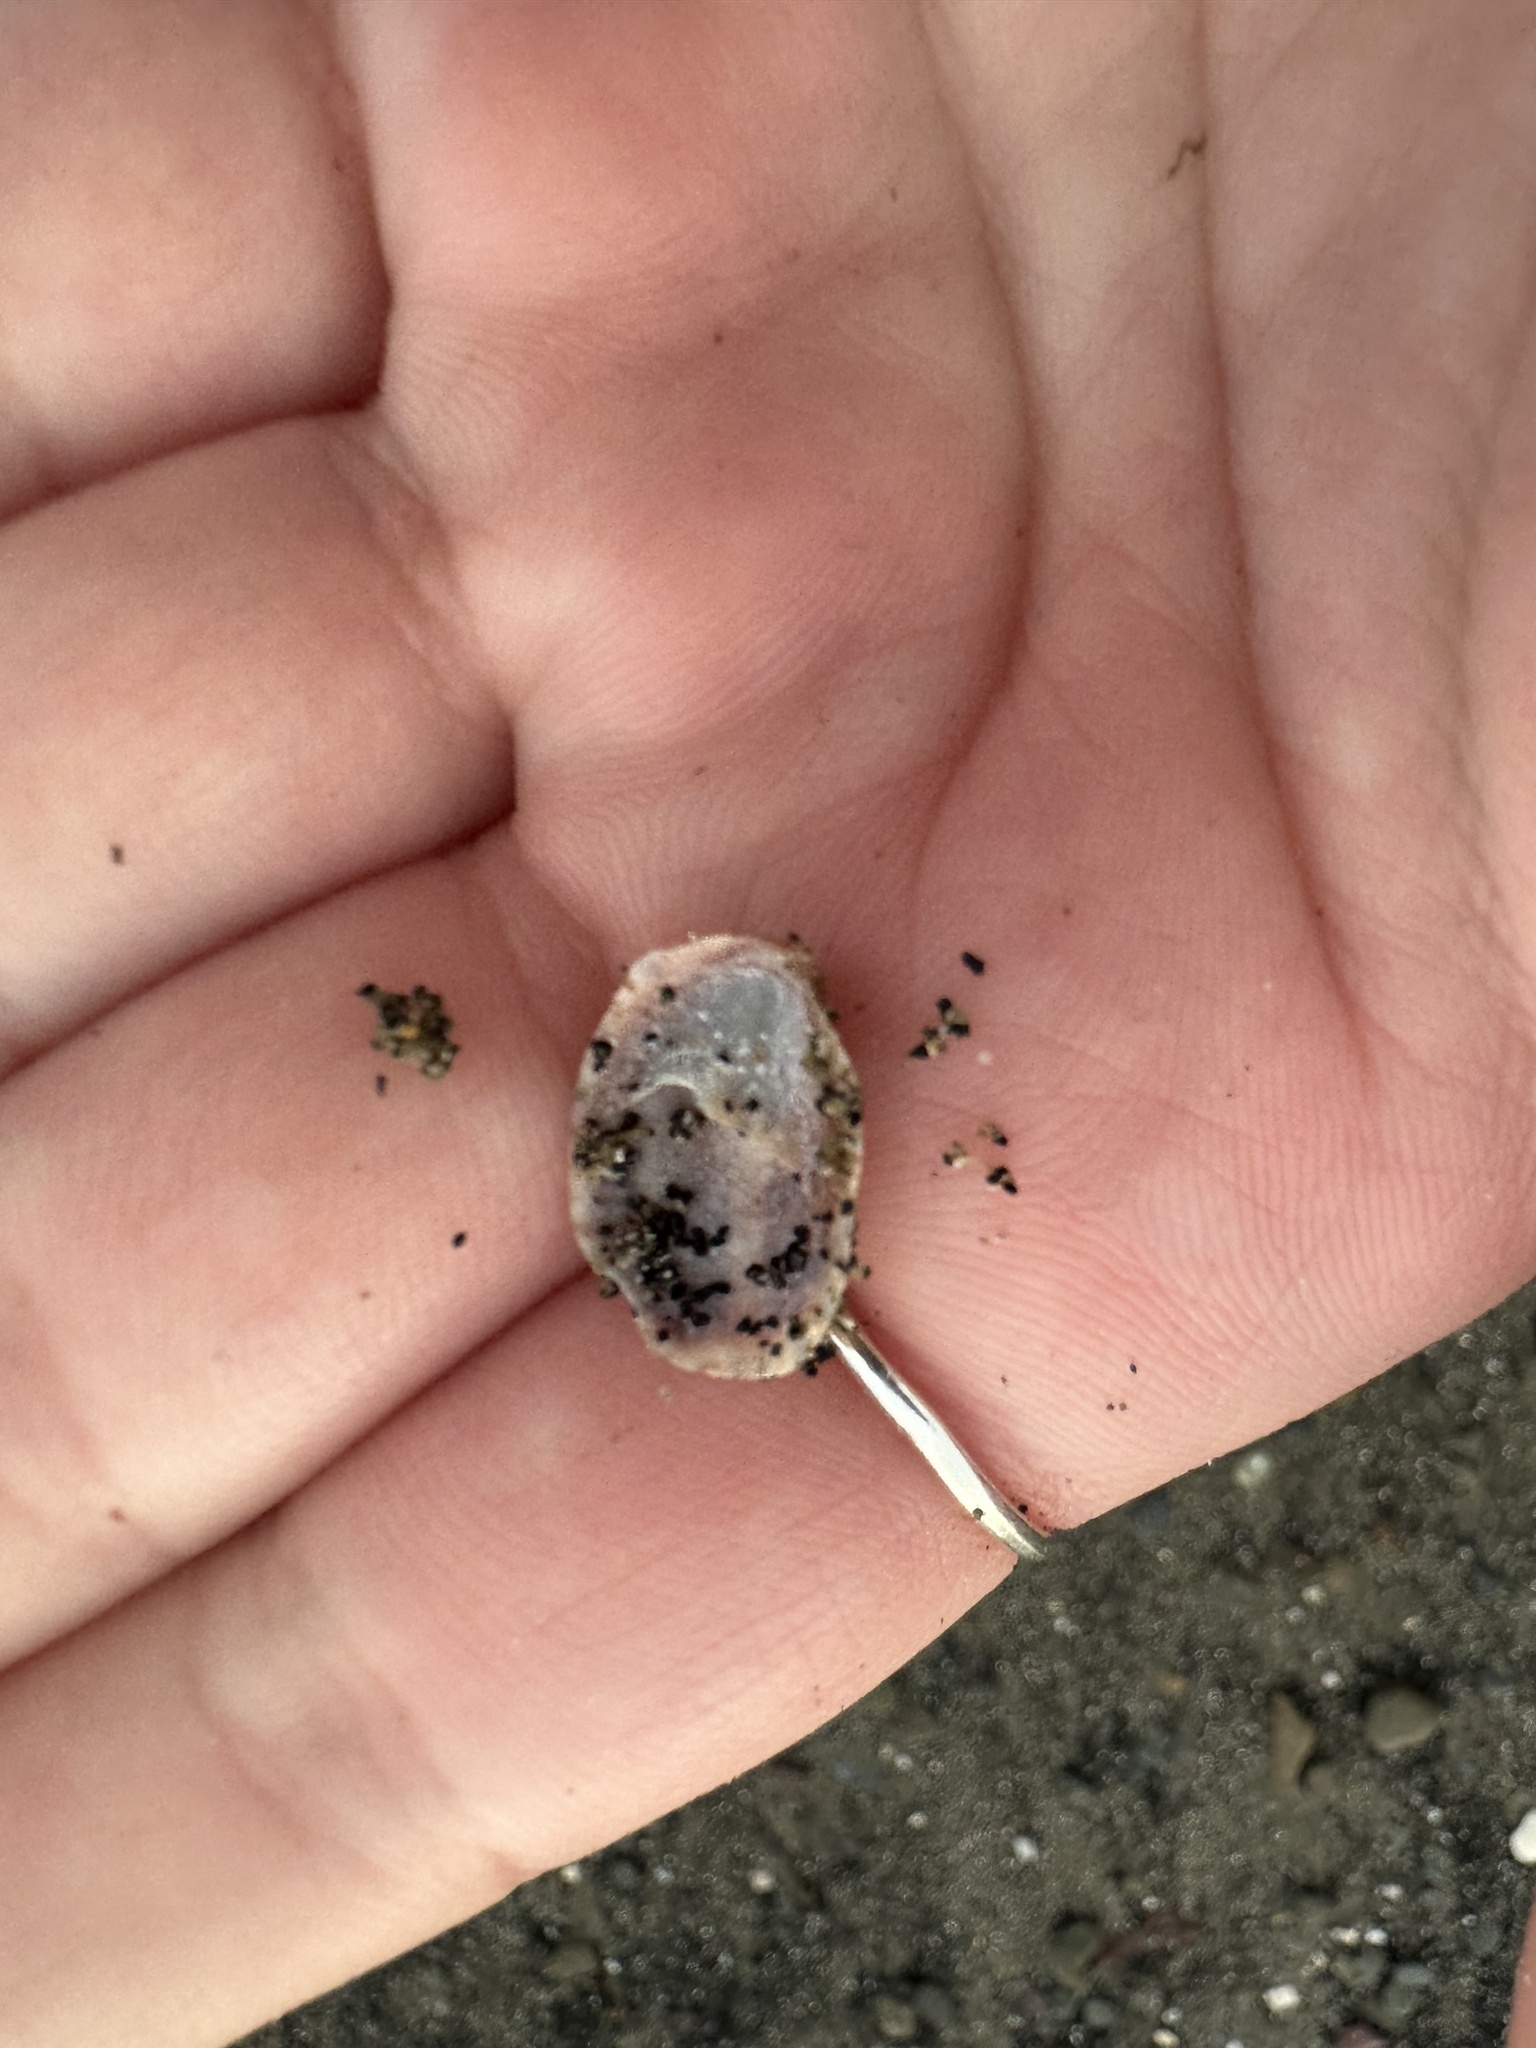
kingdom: Animalia
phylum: Mollusca
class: Gastropoda
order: Littorinimorpha
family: Calyptraeidae
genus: Crepidula
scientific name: Crepidula fornicata
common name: Slipper limpet
